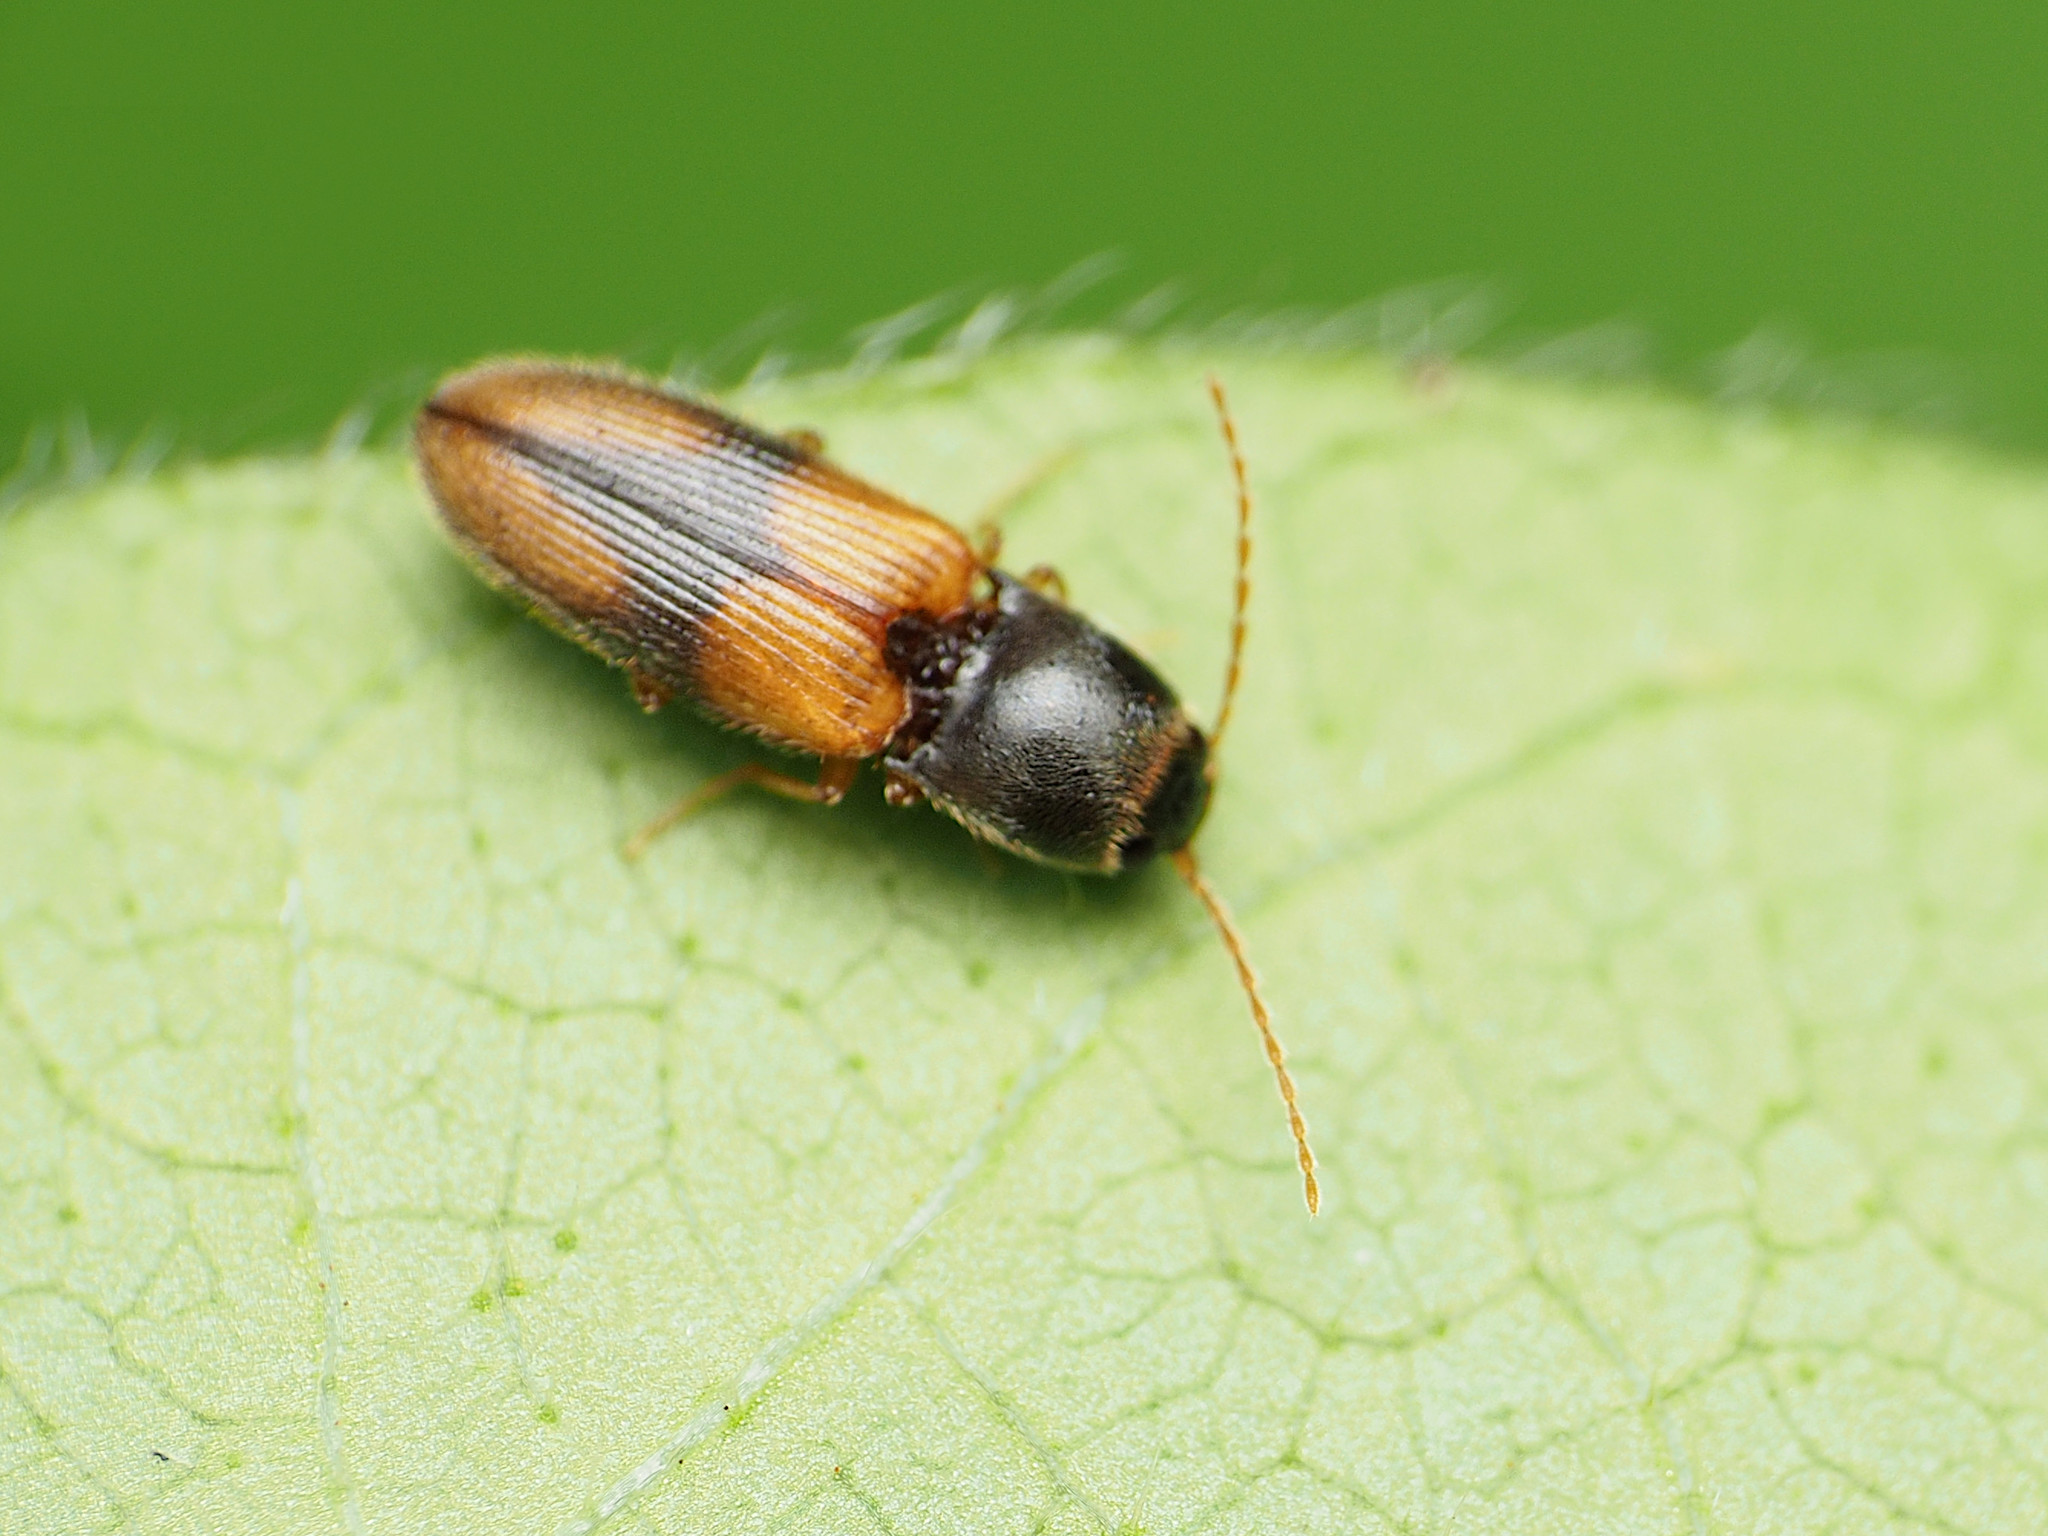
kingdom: Animalia
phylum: Arthropoda
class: Insecta
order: Coleoptera
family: Elateridae
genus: Horistonotus
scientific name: Horistonotus curiatus
